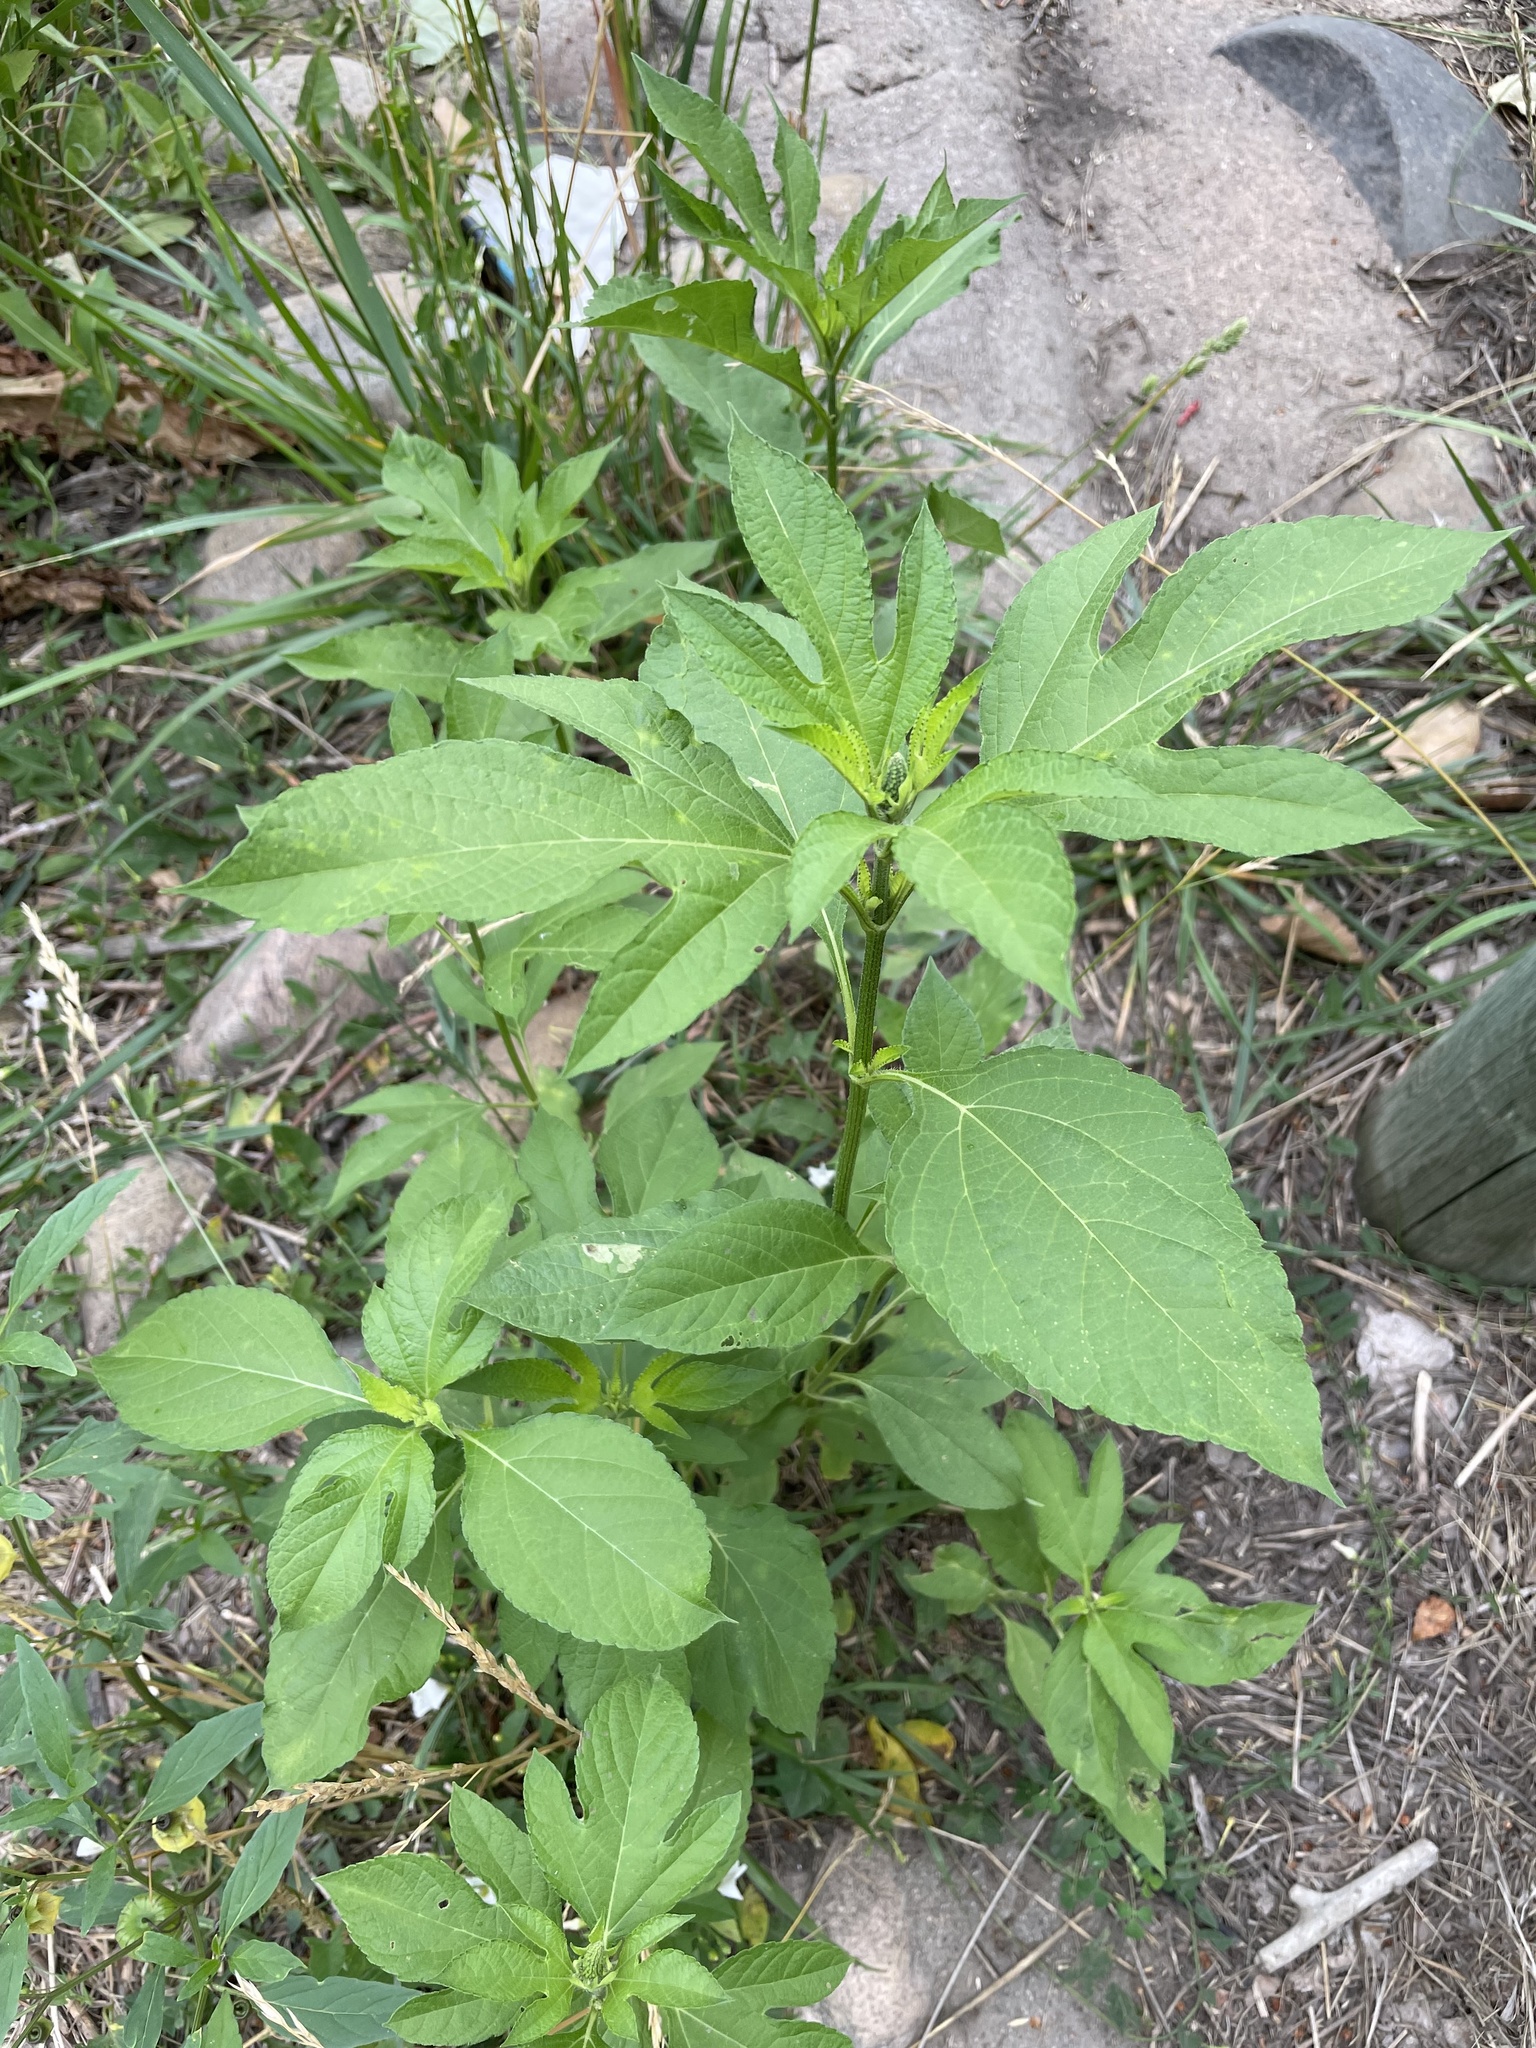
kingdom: Plantae
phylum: Tracheophyta
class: Magnoliopsida
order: Asterales
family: Asteraceae
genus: Ambrosia
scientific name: Ambrosia trifida
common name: Giant ragweed
